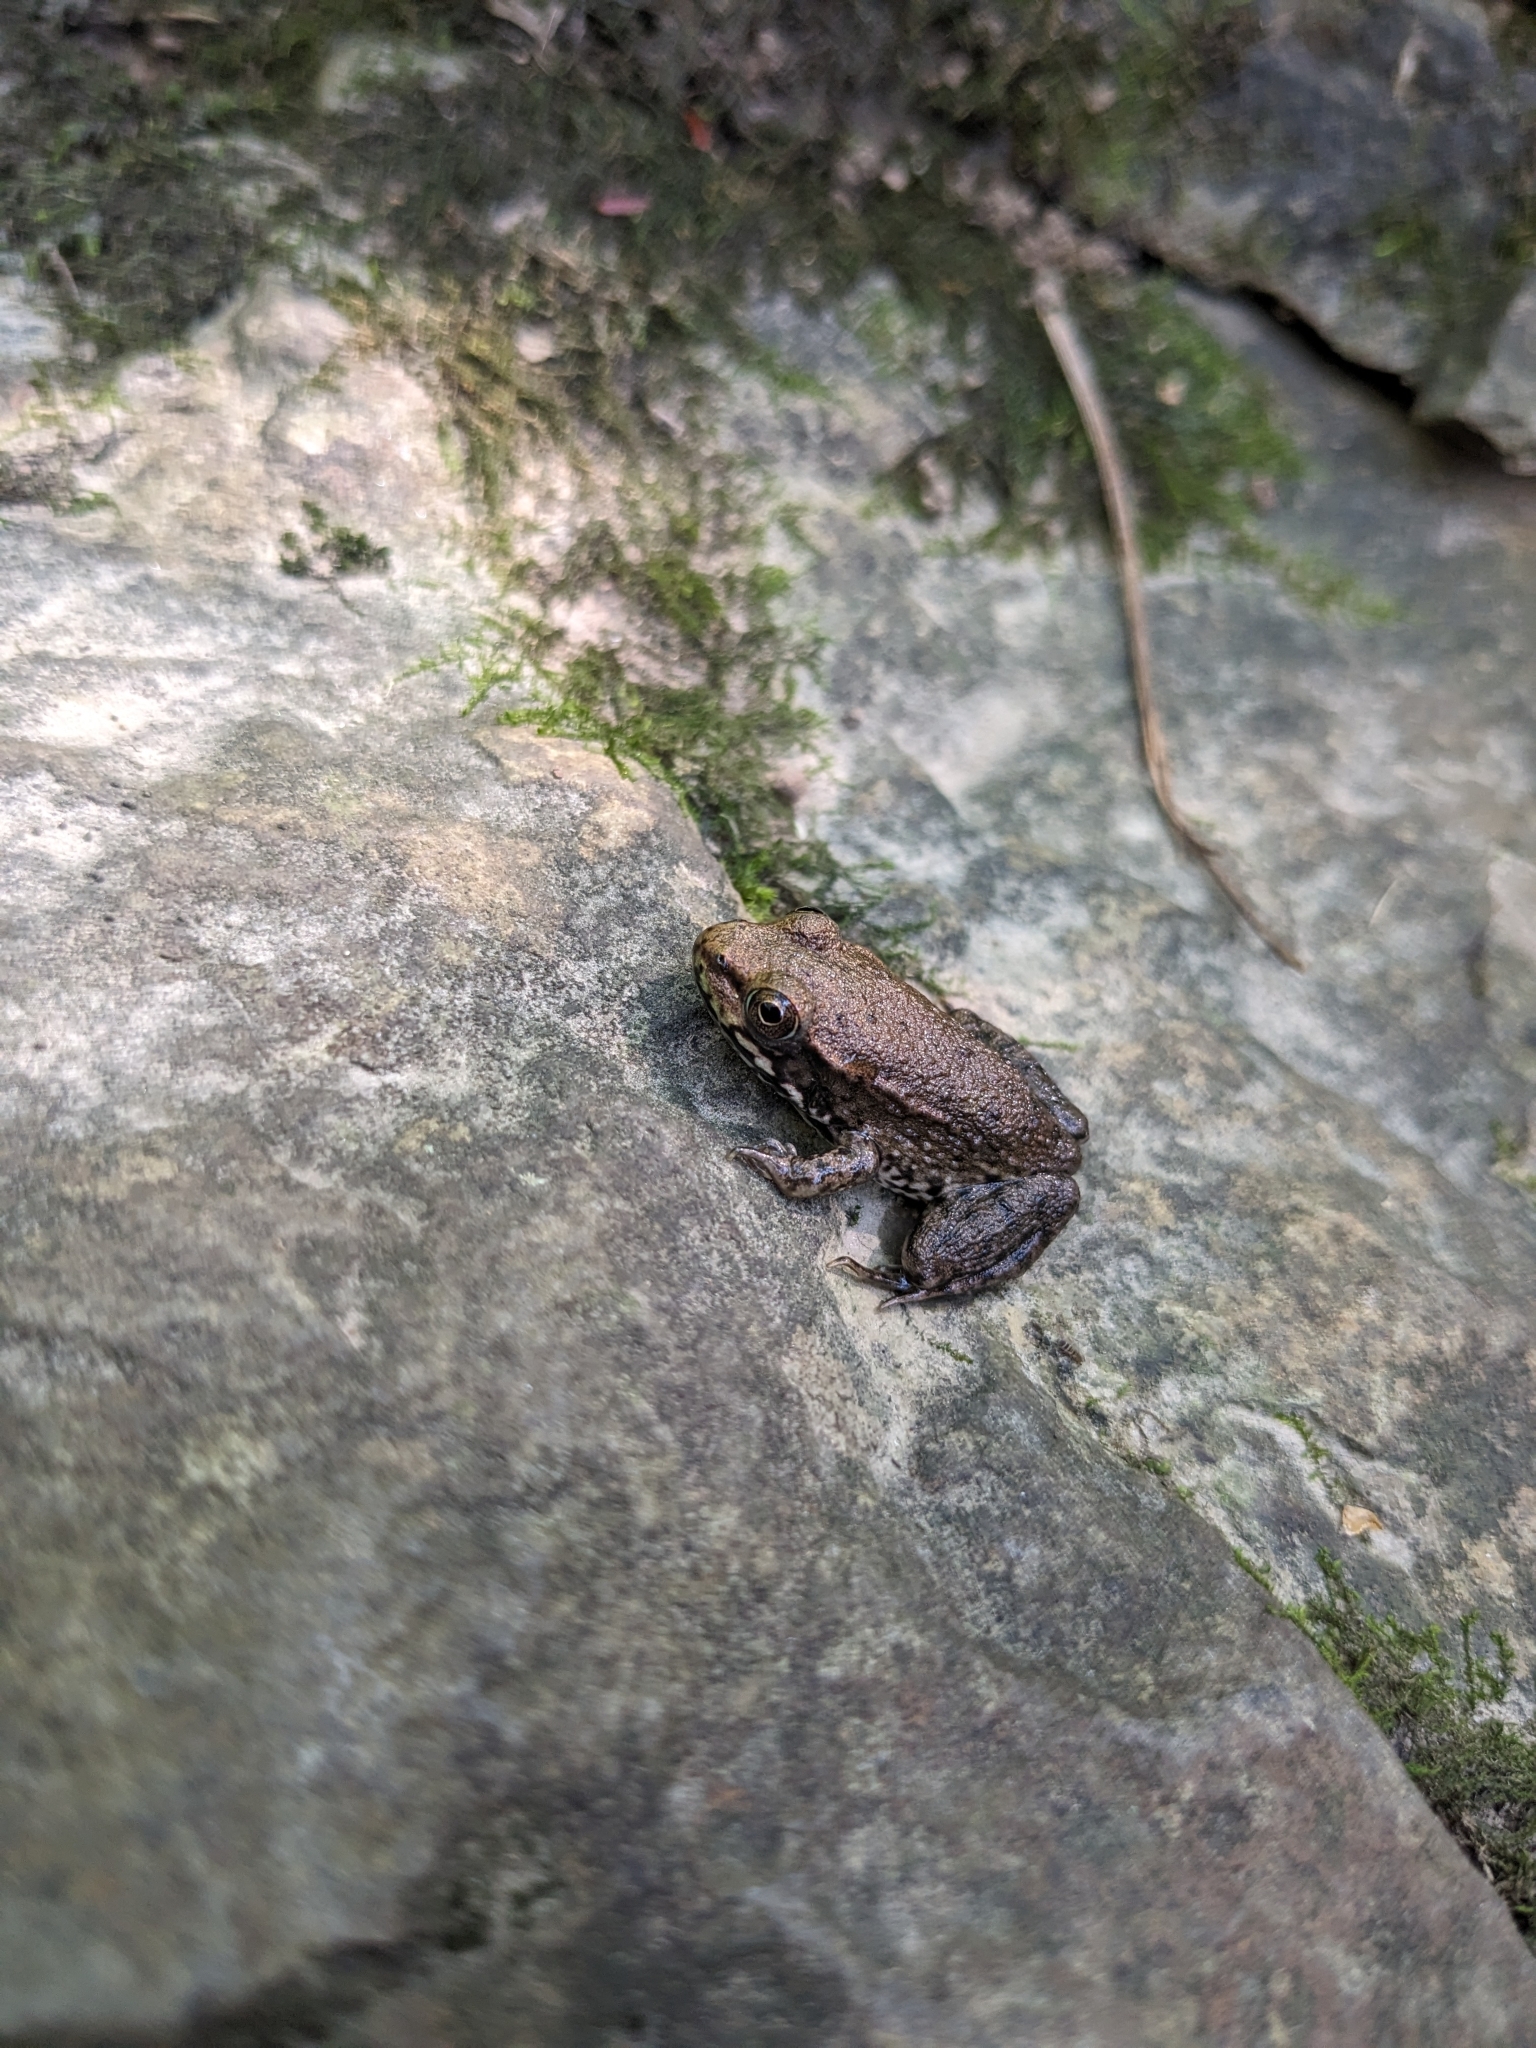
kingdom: Animalia
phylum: Chordata
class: Amphibia
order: Anura
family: Ranidae
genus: Lithobates
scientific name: Lithobates clamitans
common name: Green frog
